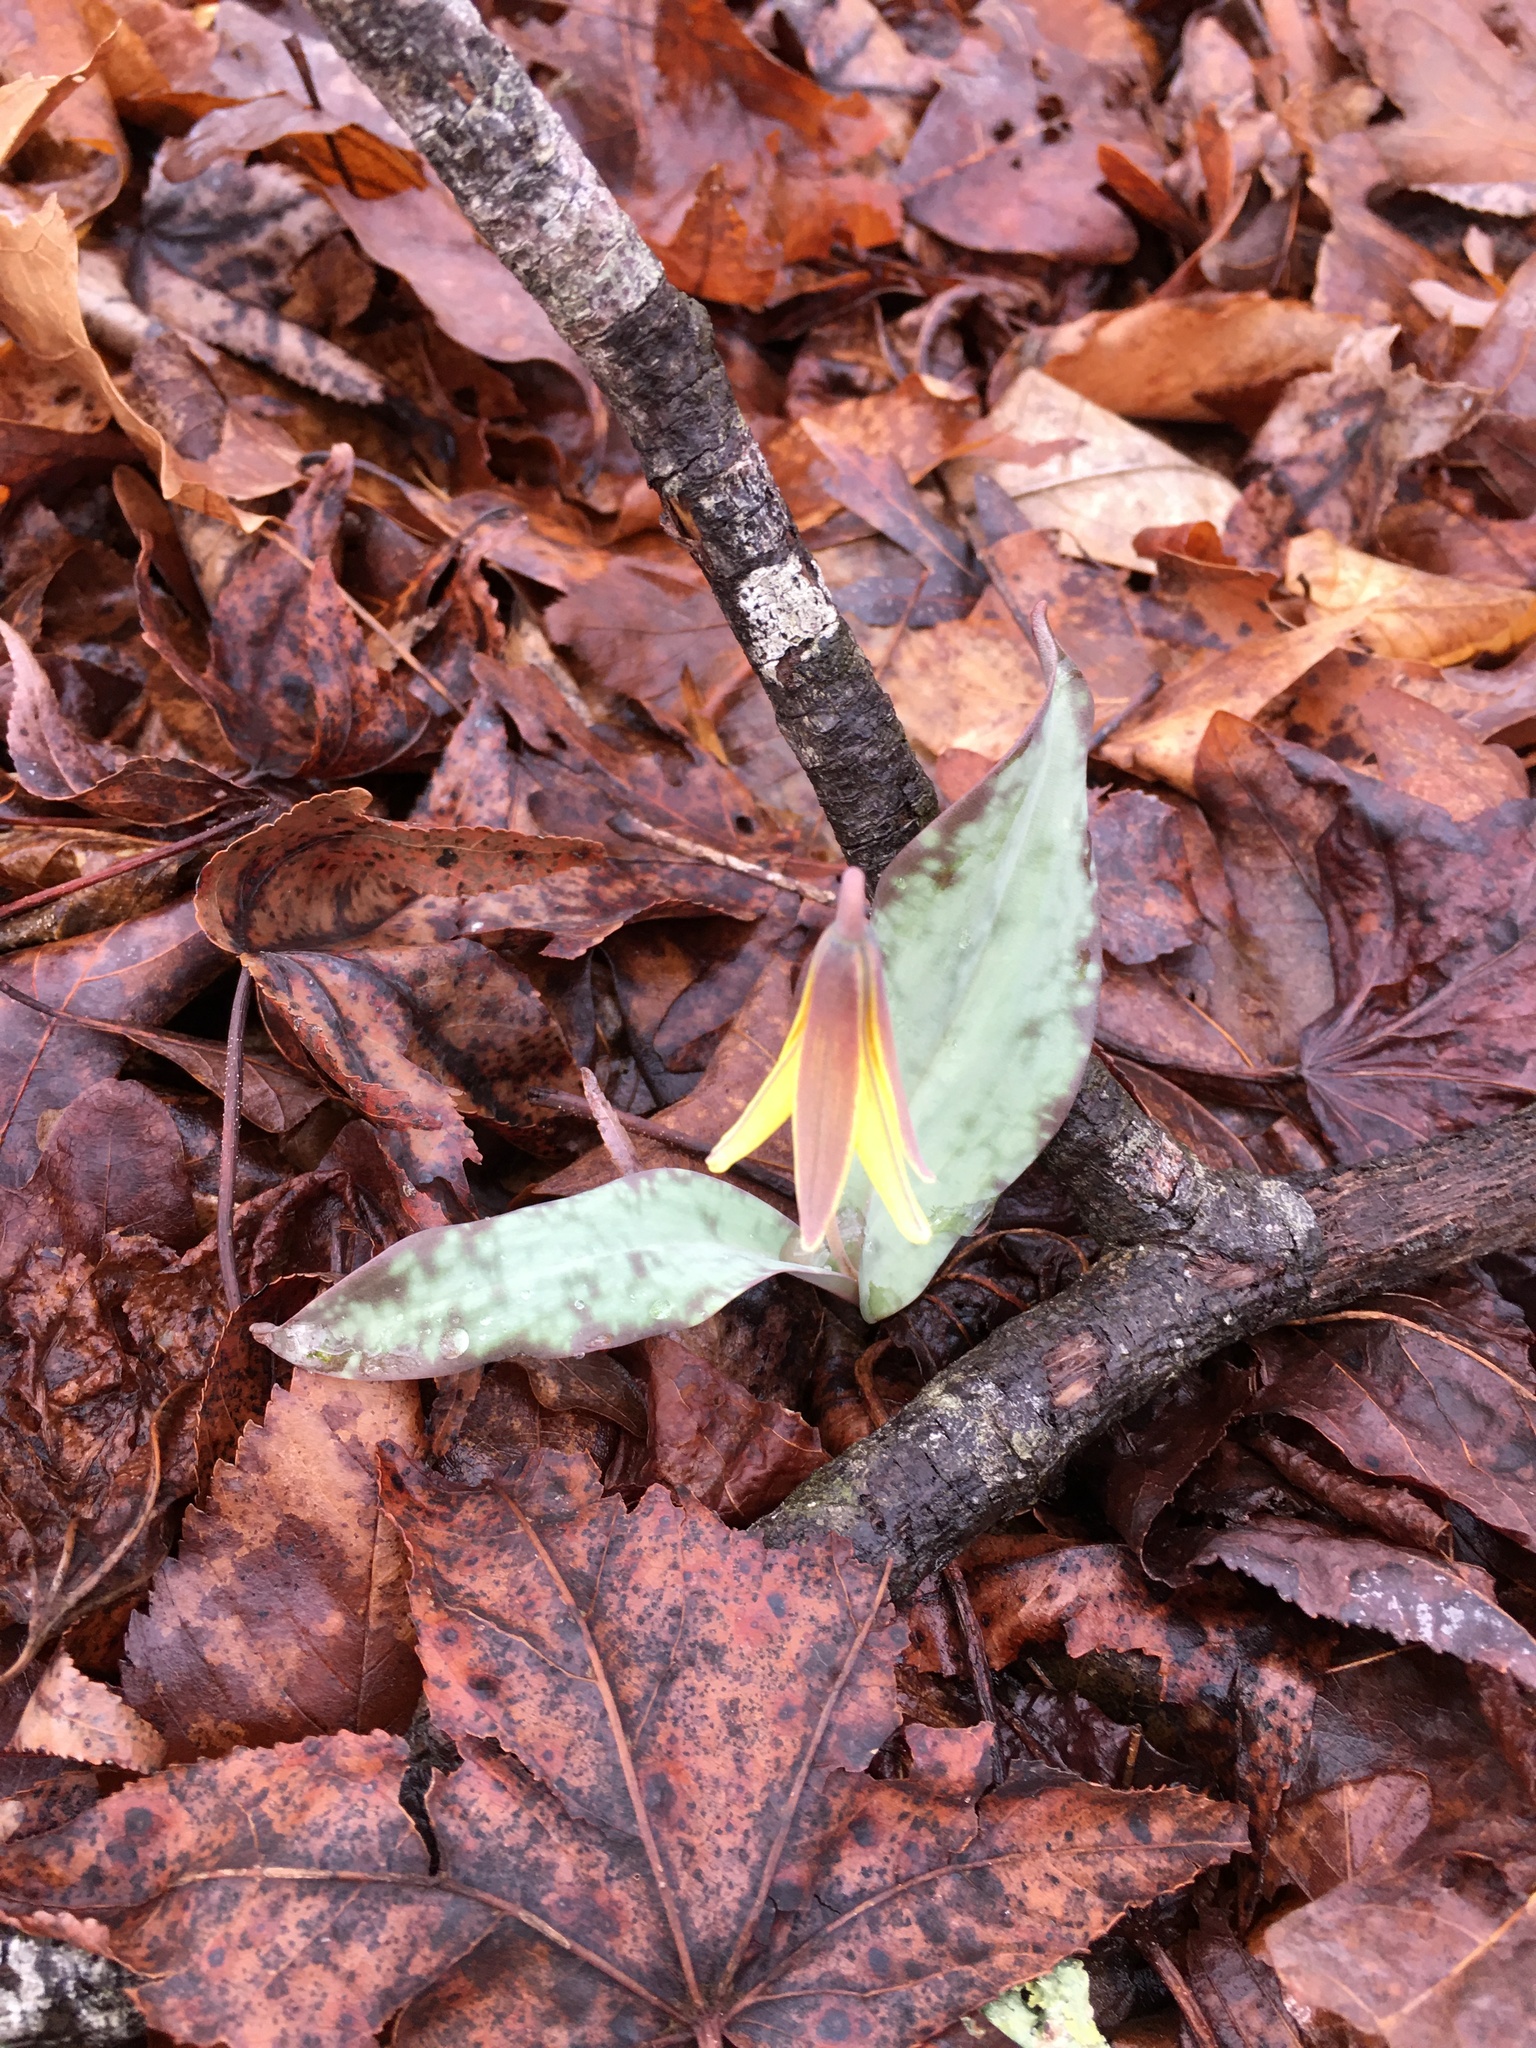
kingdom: Plantae
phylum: Tracheophyta
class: Liliopsida
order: Liliales
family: Liliaceae
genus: Erythronium
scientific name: Erythronium umbilicatum
